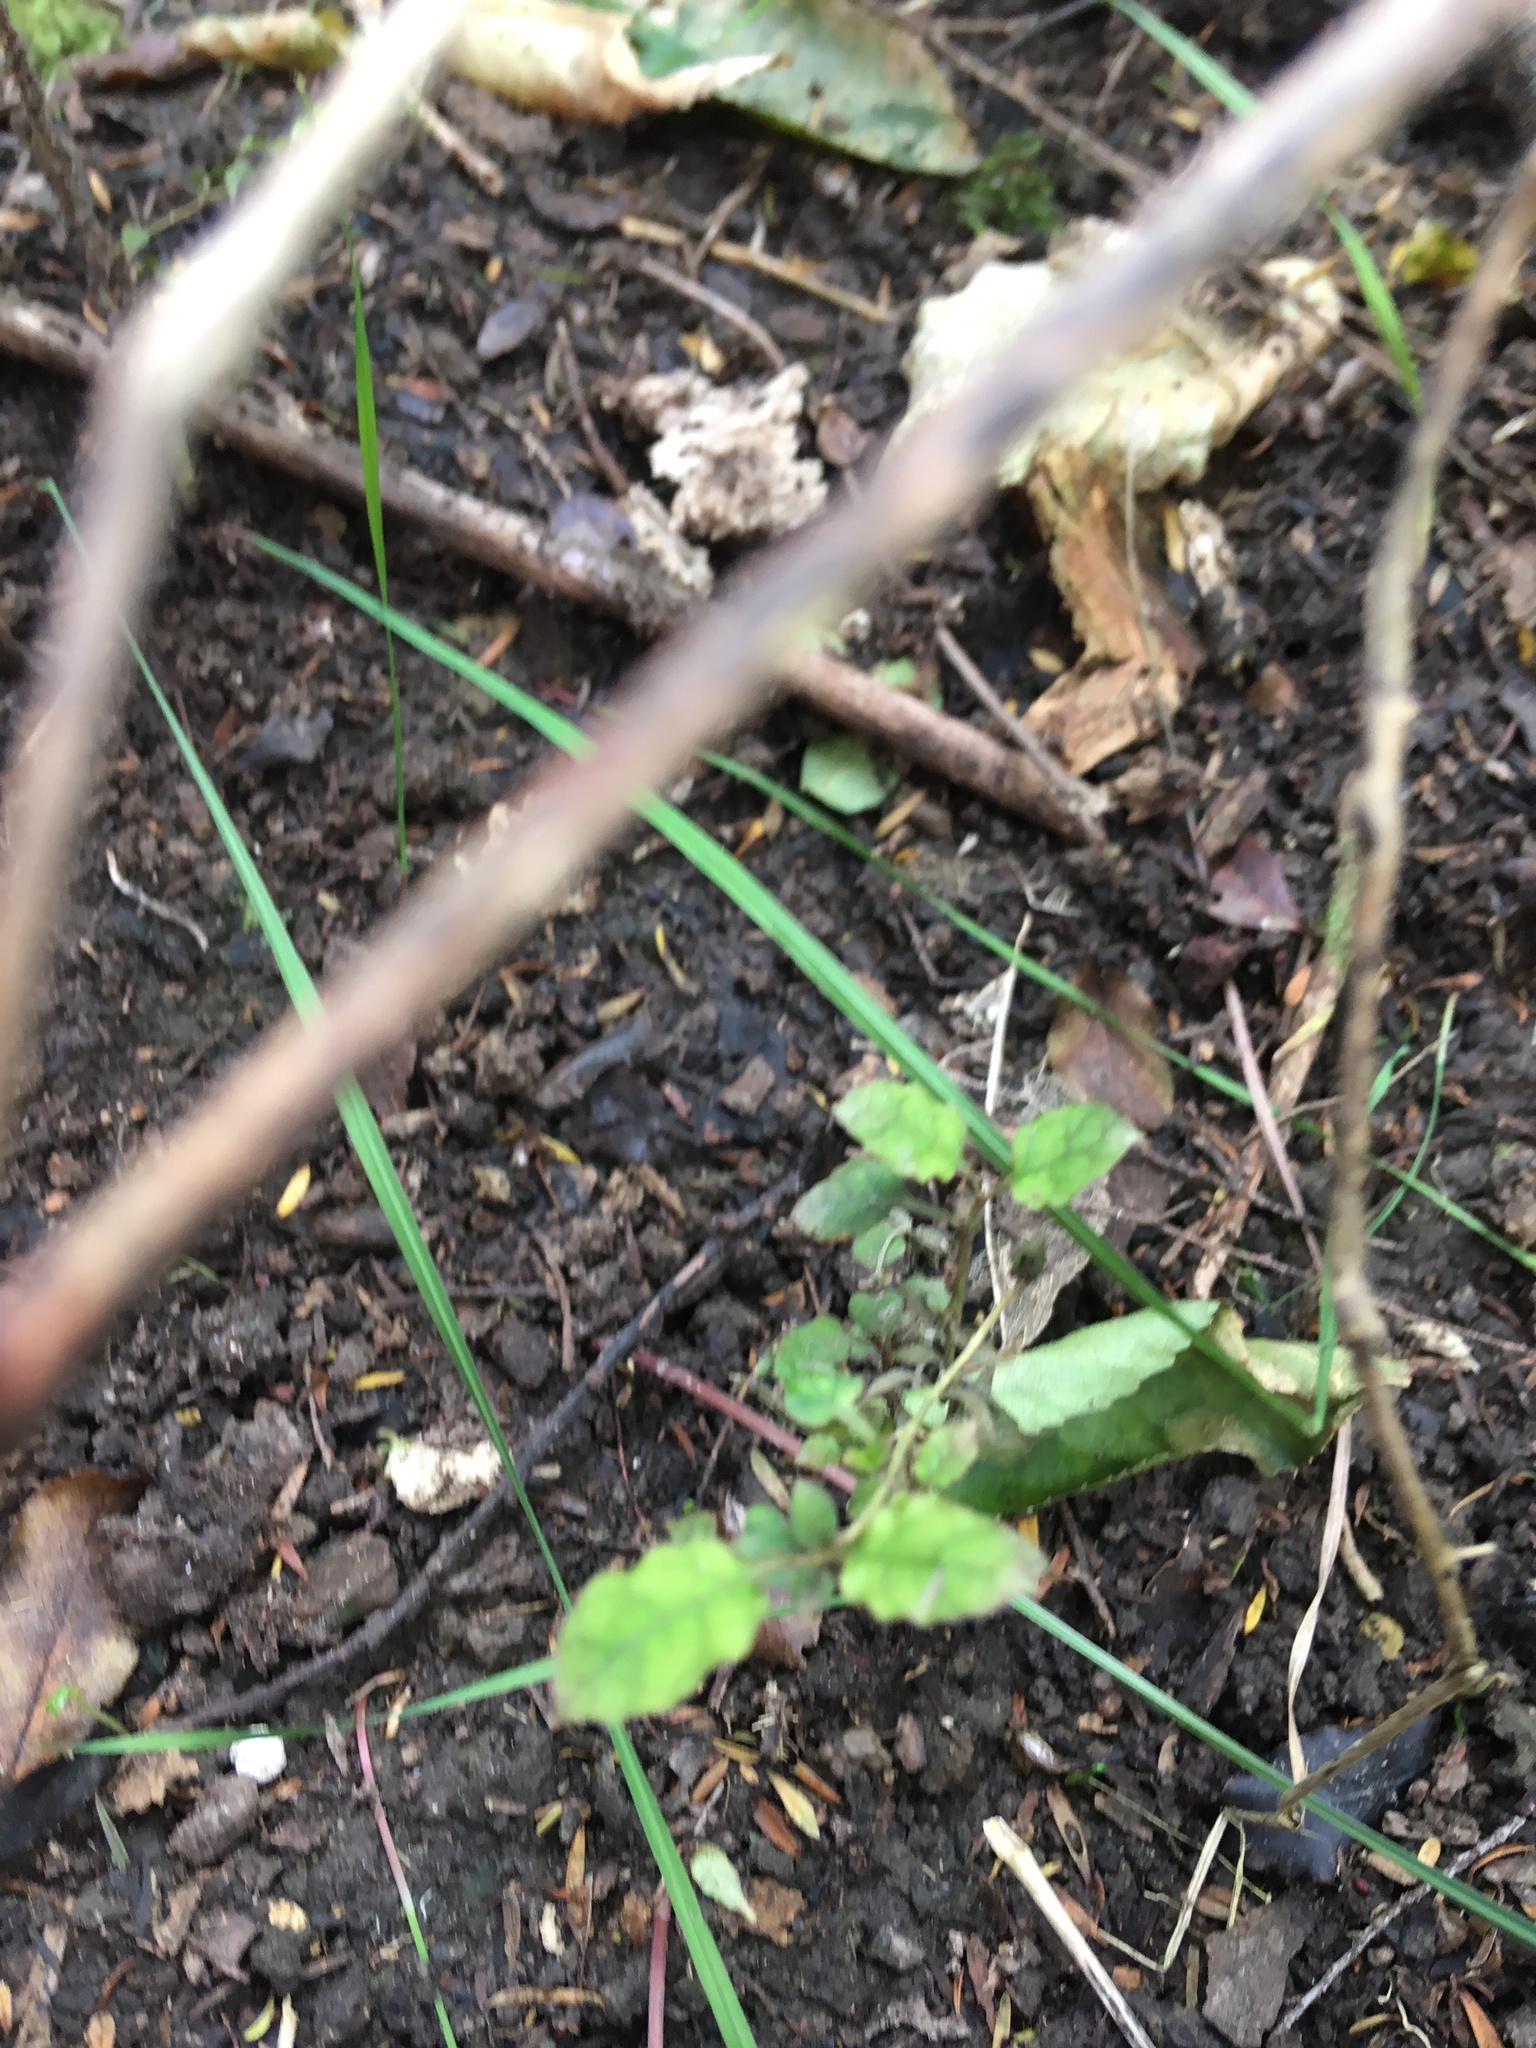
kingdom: Plantae
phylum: Tracheophyta
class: Magnoliopsida
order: Gentianales
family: Rubiaceae
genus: Coprosma
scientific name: Coprosma areolata
